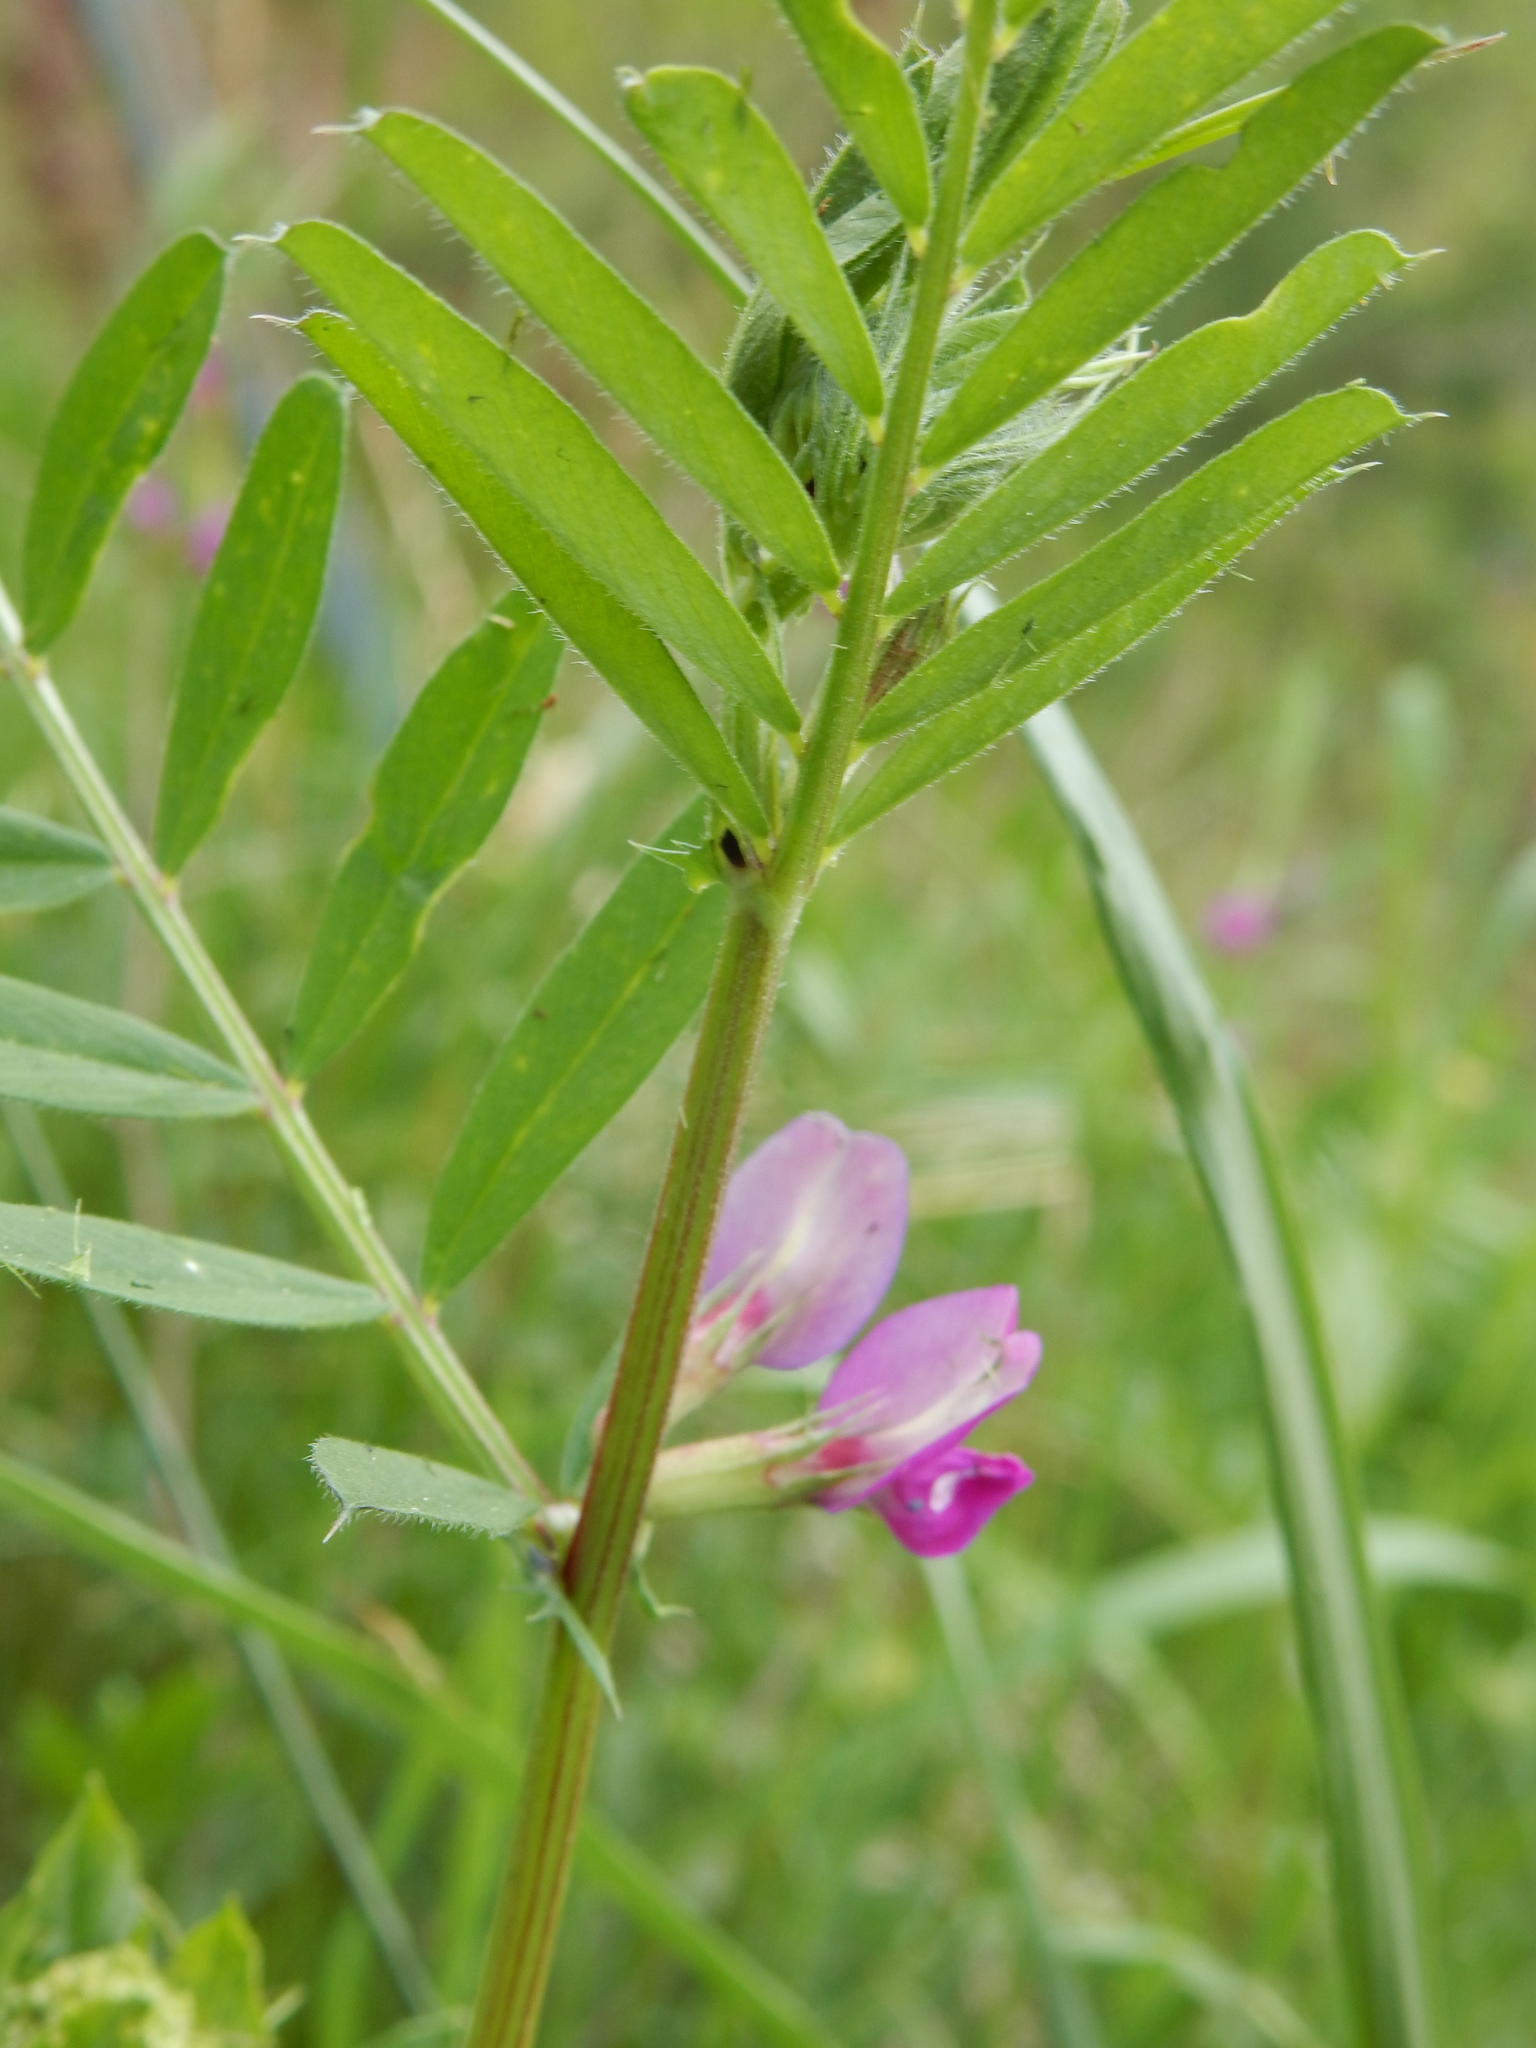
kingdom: Plantae
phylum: Tracheophyta
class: Magnoliopsida
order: Fabales
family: Fabaceae
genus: Vicia
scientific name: Vicia sativa
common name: Garden vetch
